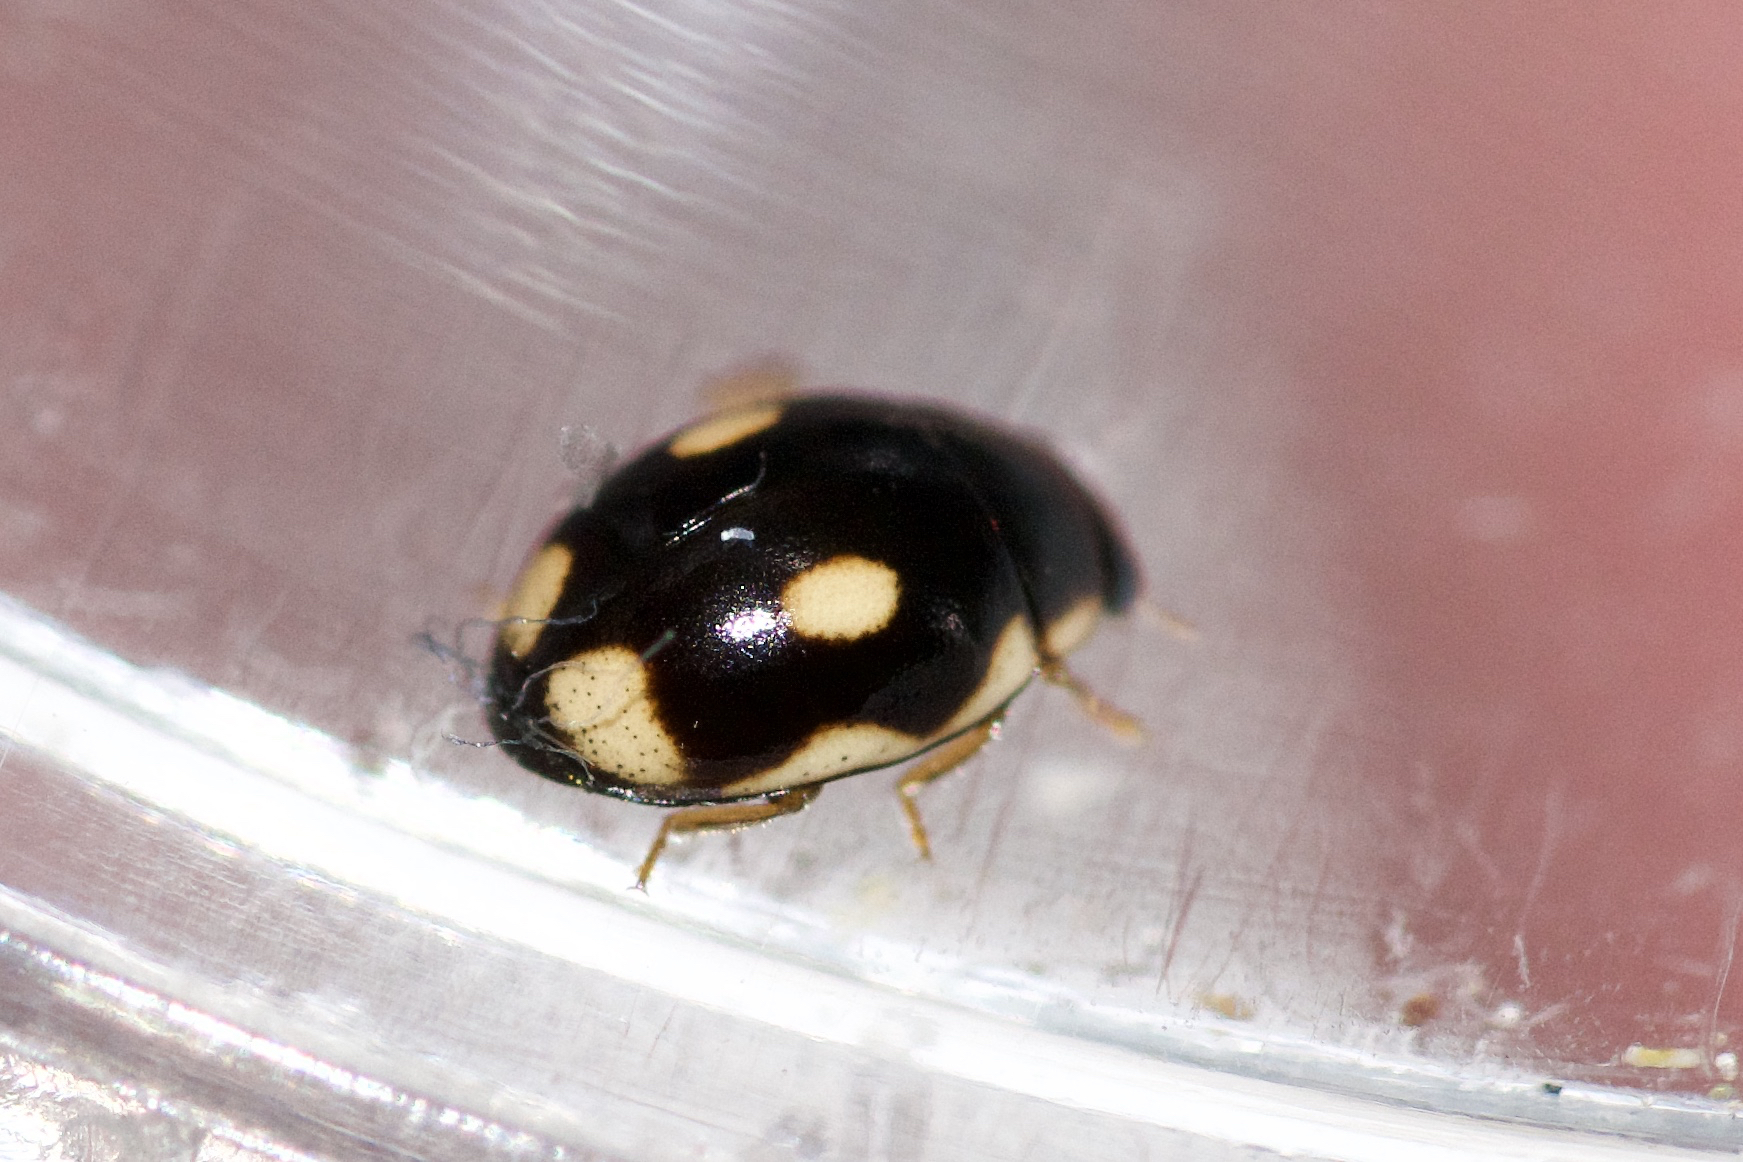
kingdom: Animalia
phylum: Arthropoda
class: Insecta
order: Coleoptera
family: Coccinellidae
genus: Hyperaspis
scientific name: Hyperaspis undulata
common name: Undulate sigil lady beetle
